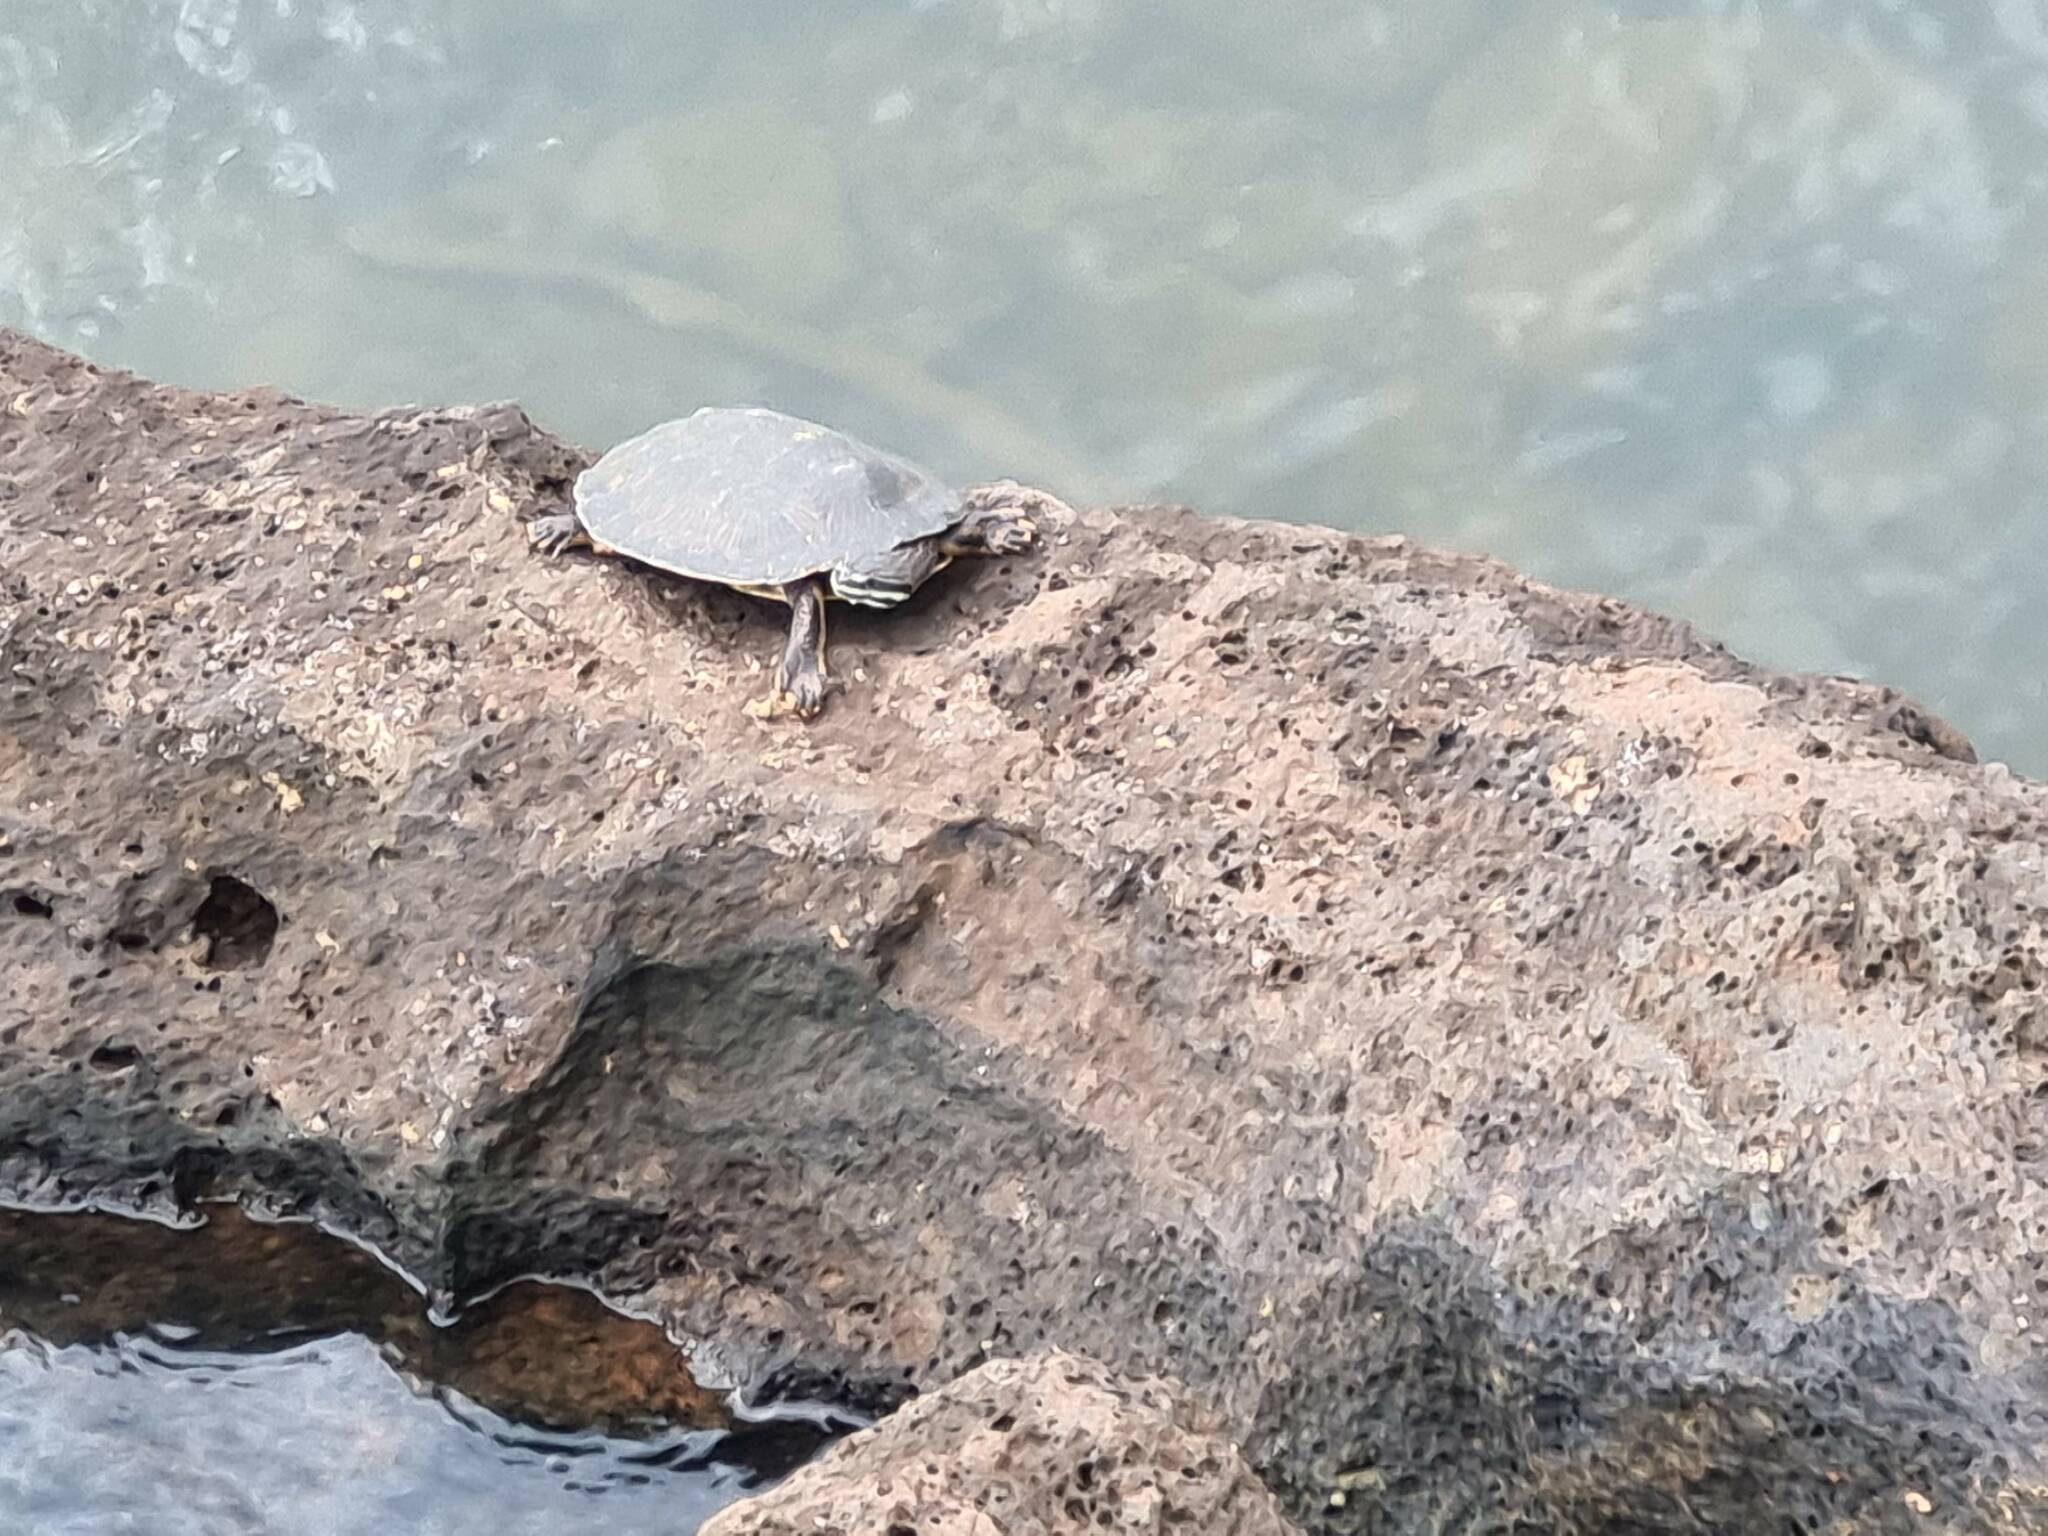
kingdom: Animalia
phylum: Chordata
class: Testudines
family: Chelidae
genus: Phrynops
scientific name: Phrynops williamsi
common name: Williams side-necked turtle
